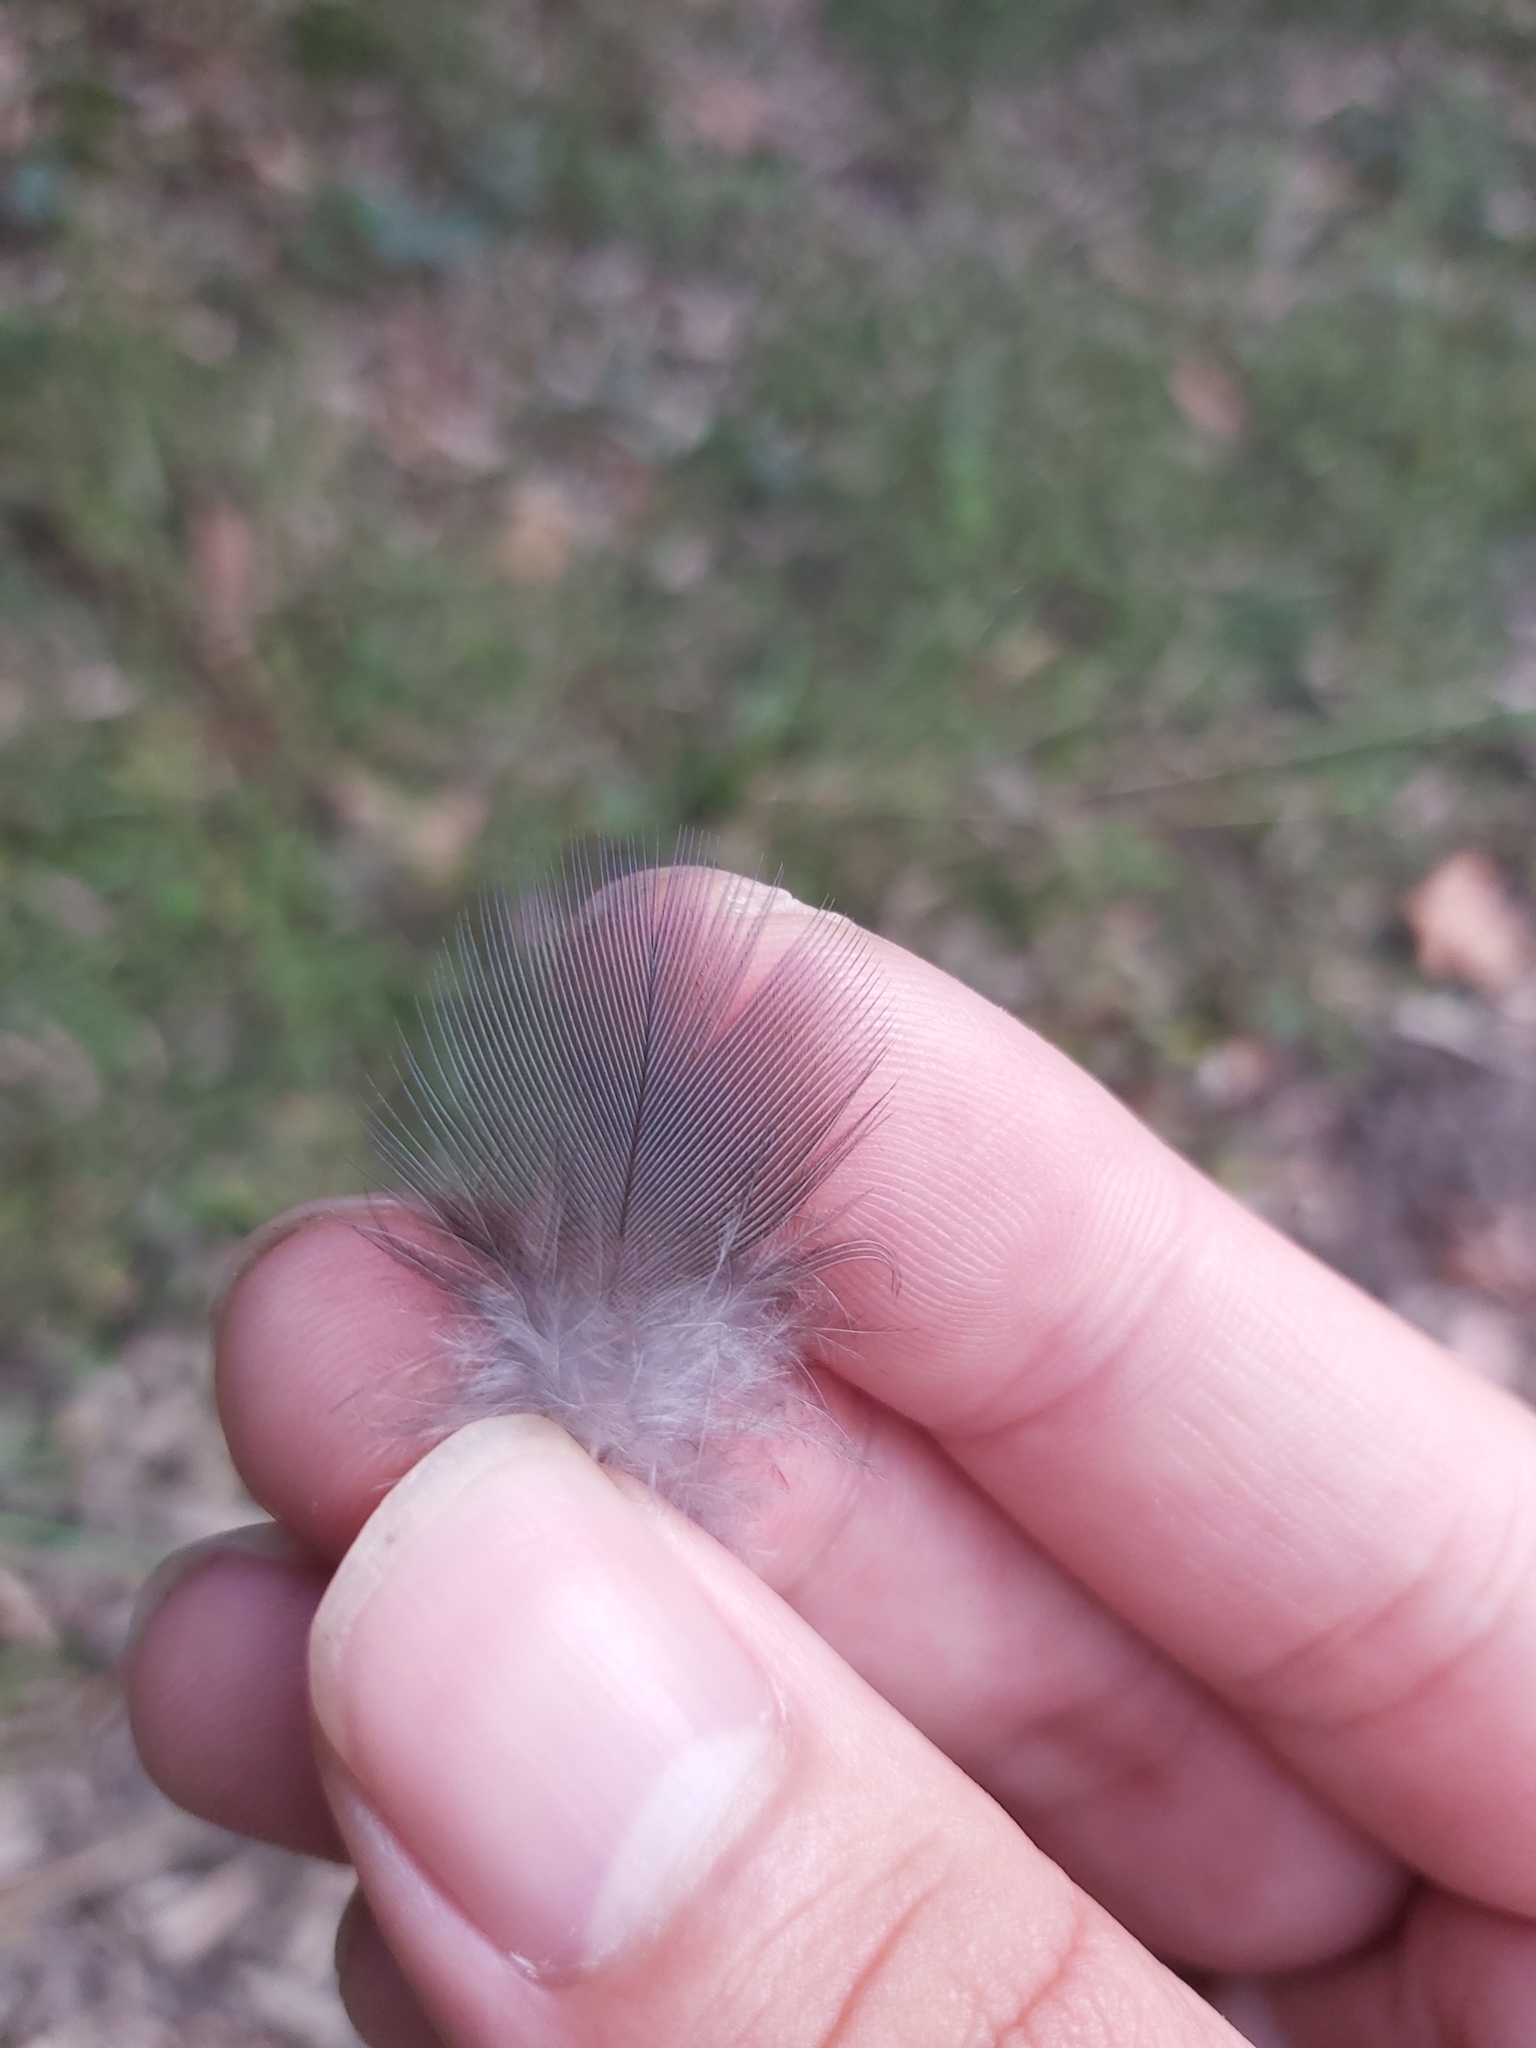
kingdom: Animalia
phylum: Chordata
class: Aves
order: Psittaciformes
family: Psittacidae
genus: Alisterus
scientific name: Alisterus scapularis
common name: Australian king parrot
